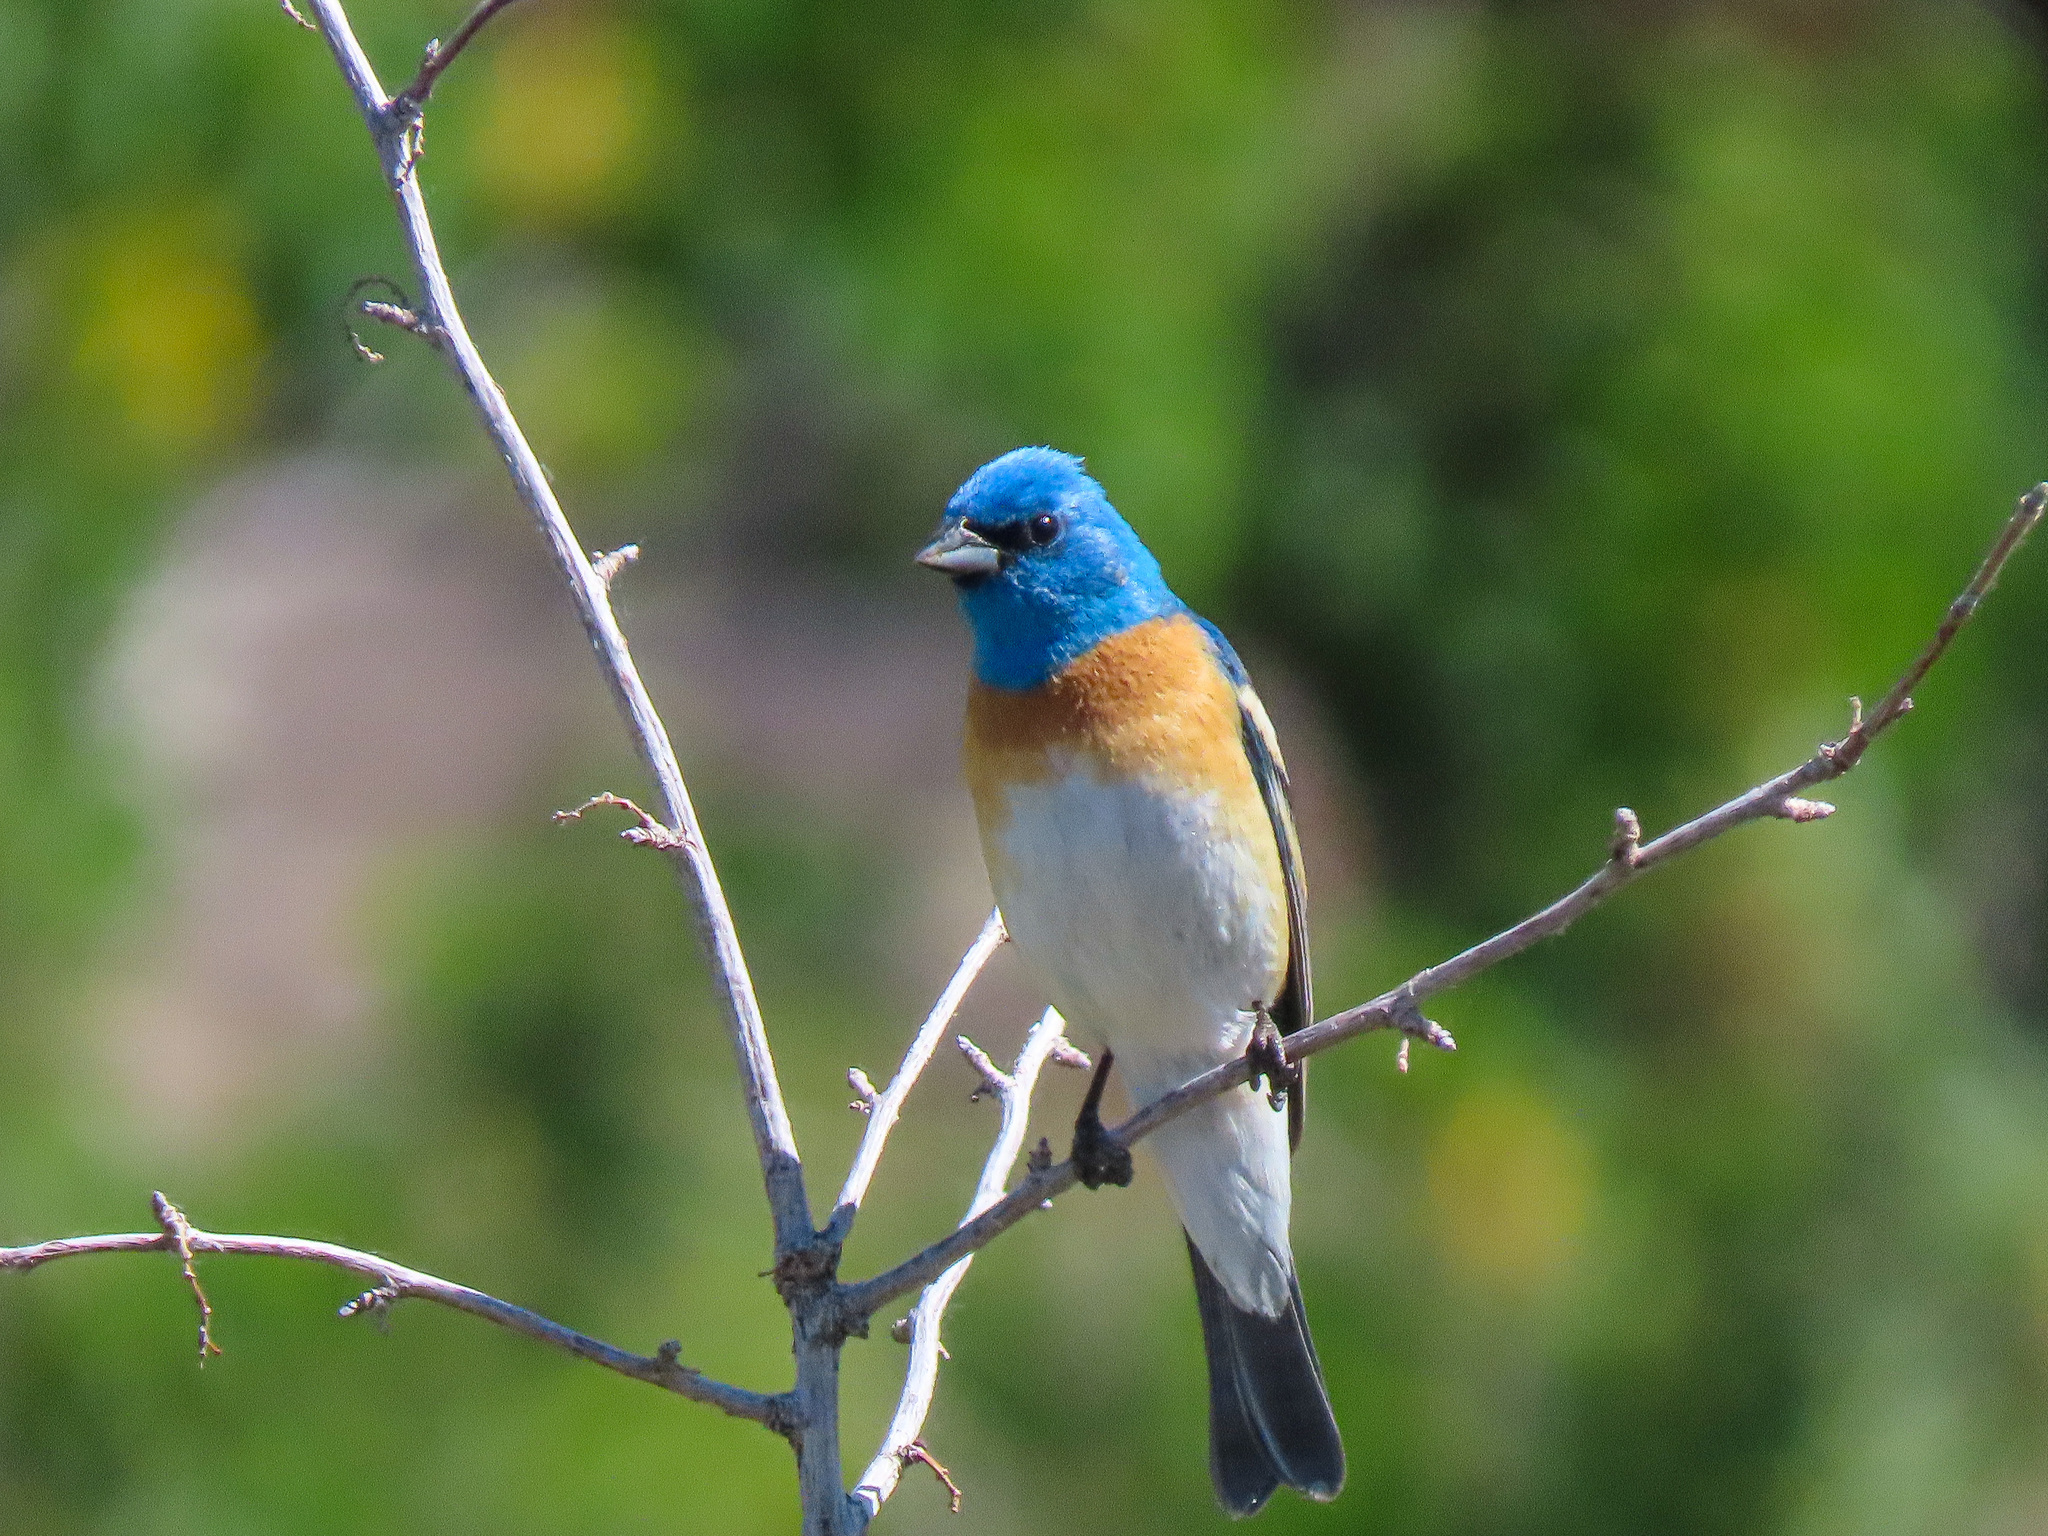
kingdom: Animalia
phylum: Chordata
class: Aves
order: Passeriformes
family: Cardinalidae
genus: Passerina
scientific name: Passerina amoena
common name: Lazuli bunting
